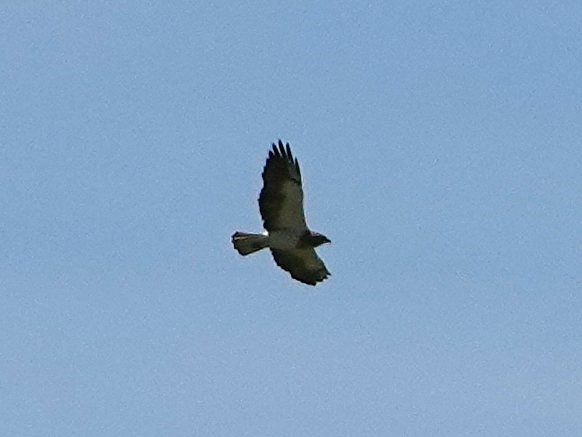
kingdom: Animalia
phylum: Chordata
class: Aves
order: Accipitriformes
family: Accipitridae
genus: Buteo
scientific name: Buteo swainsoni
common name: Swainson's hawk
